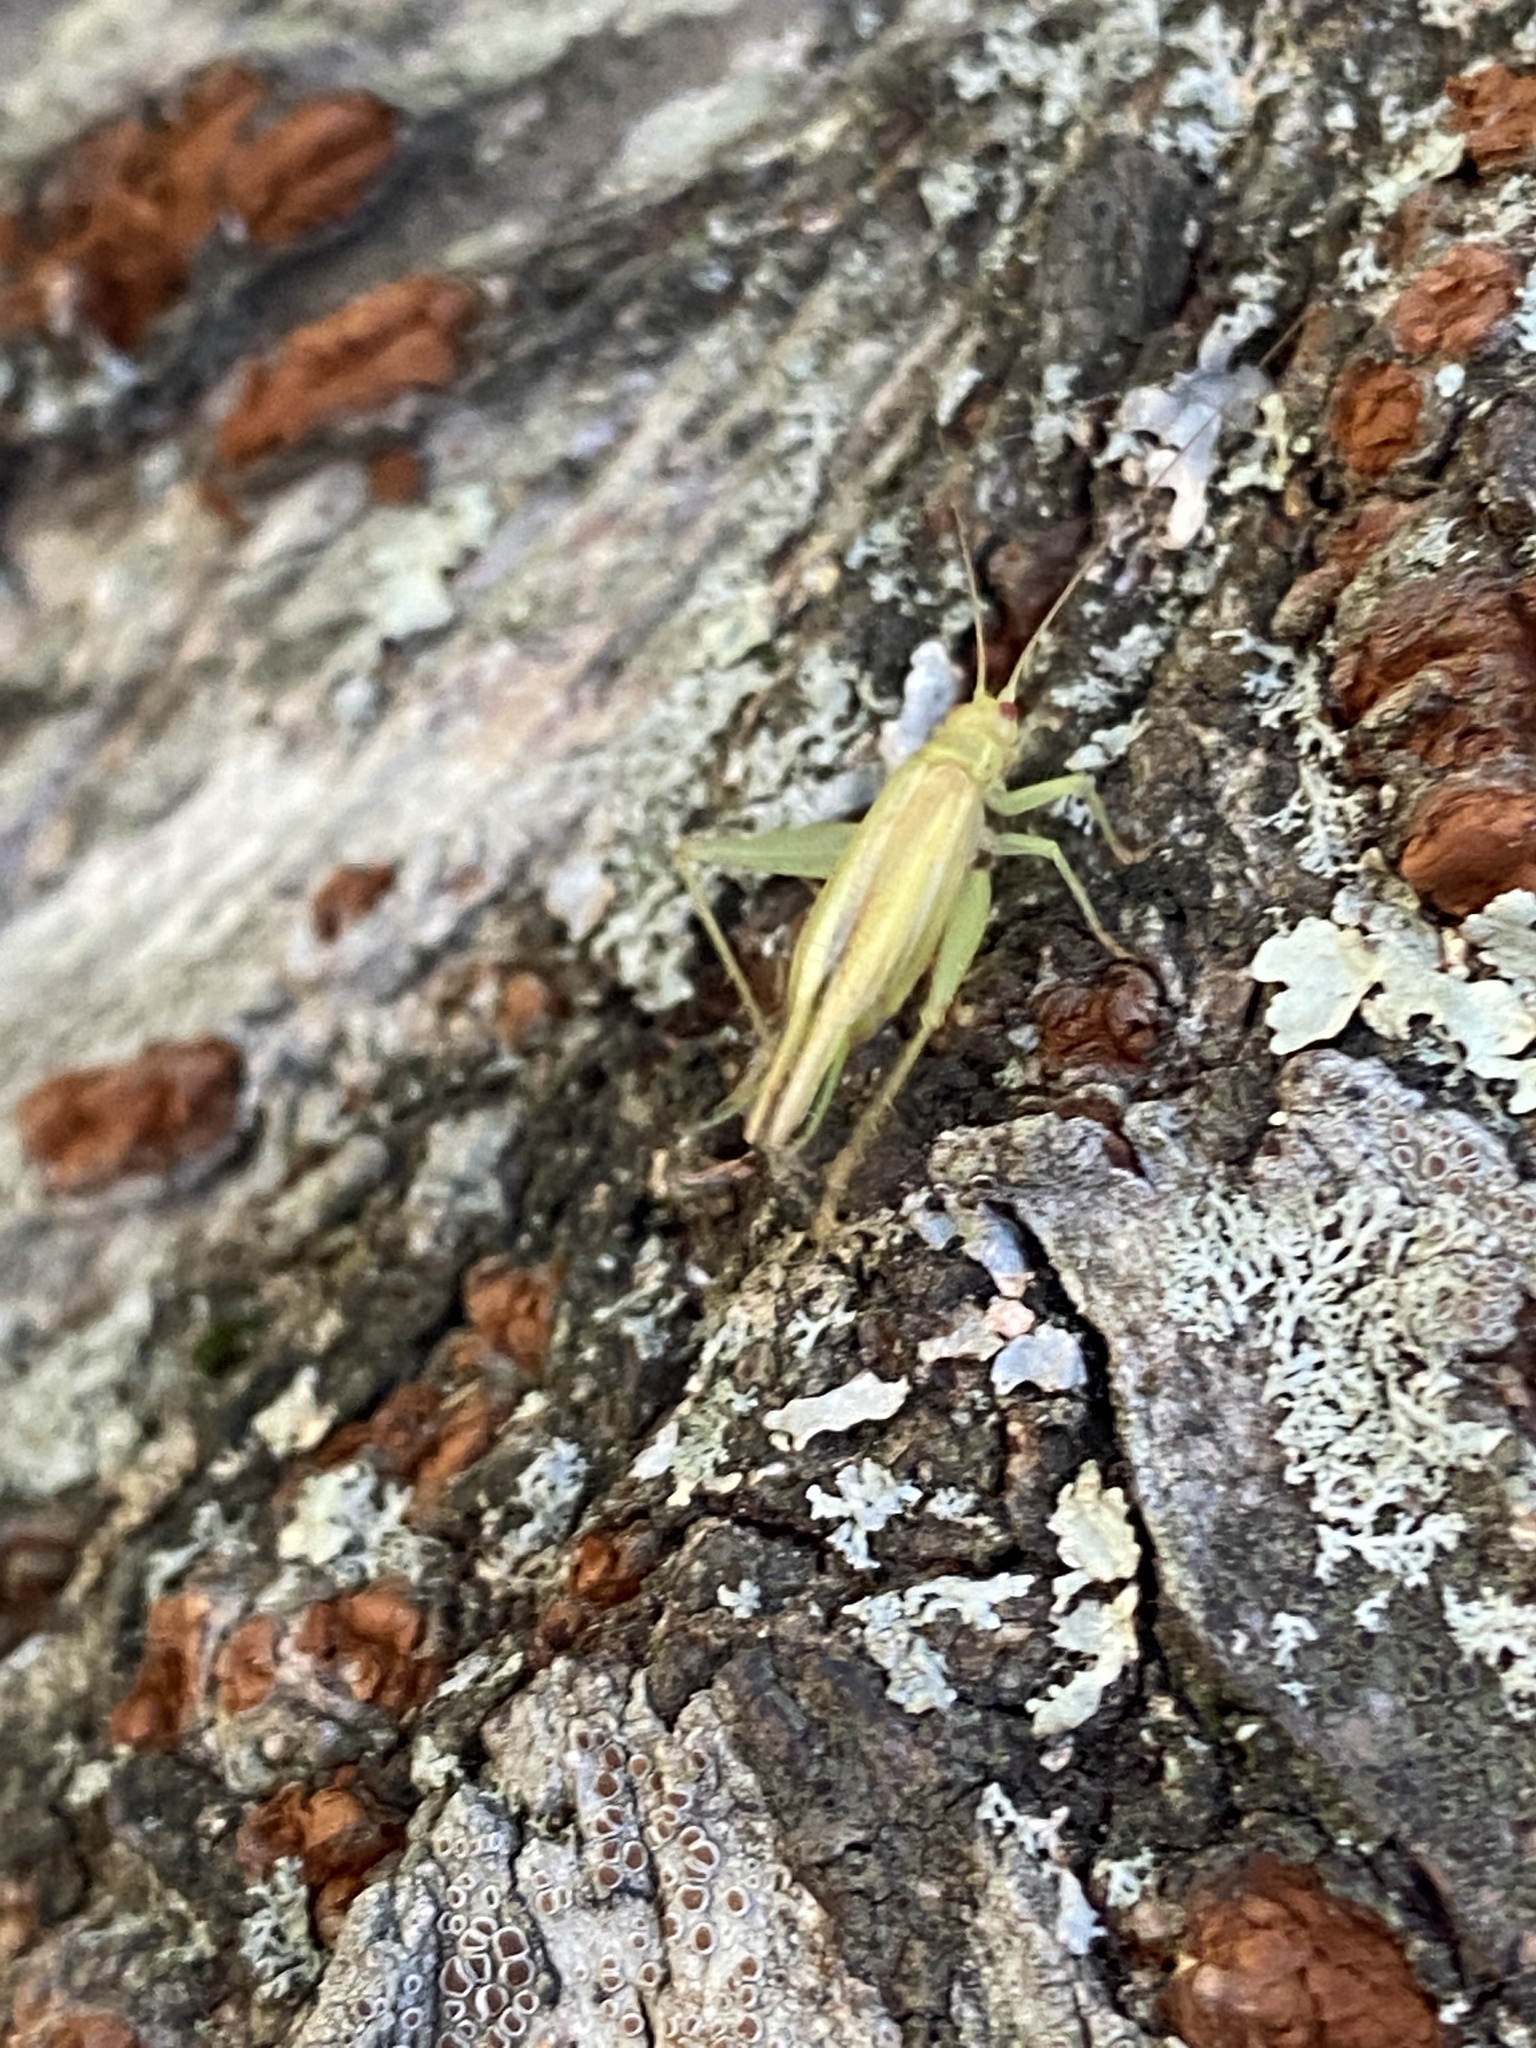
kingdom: Animalia
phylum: Arthropoda
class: Insecta
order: Orthoptera
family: Trigonidiidae
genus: Cyrtoxipha
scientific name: Cyrtoxipha columbiana
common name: Columbian trig
